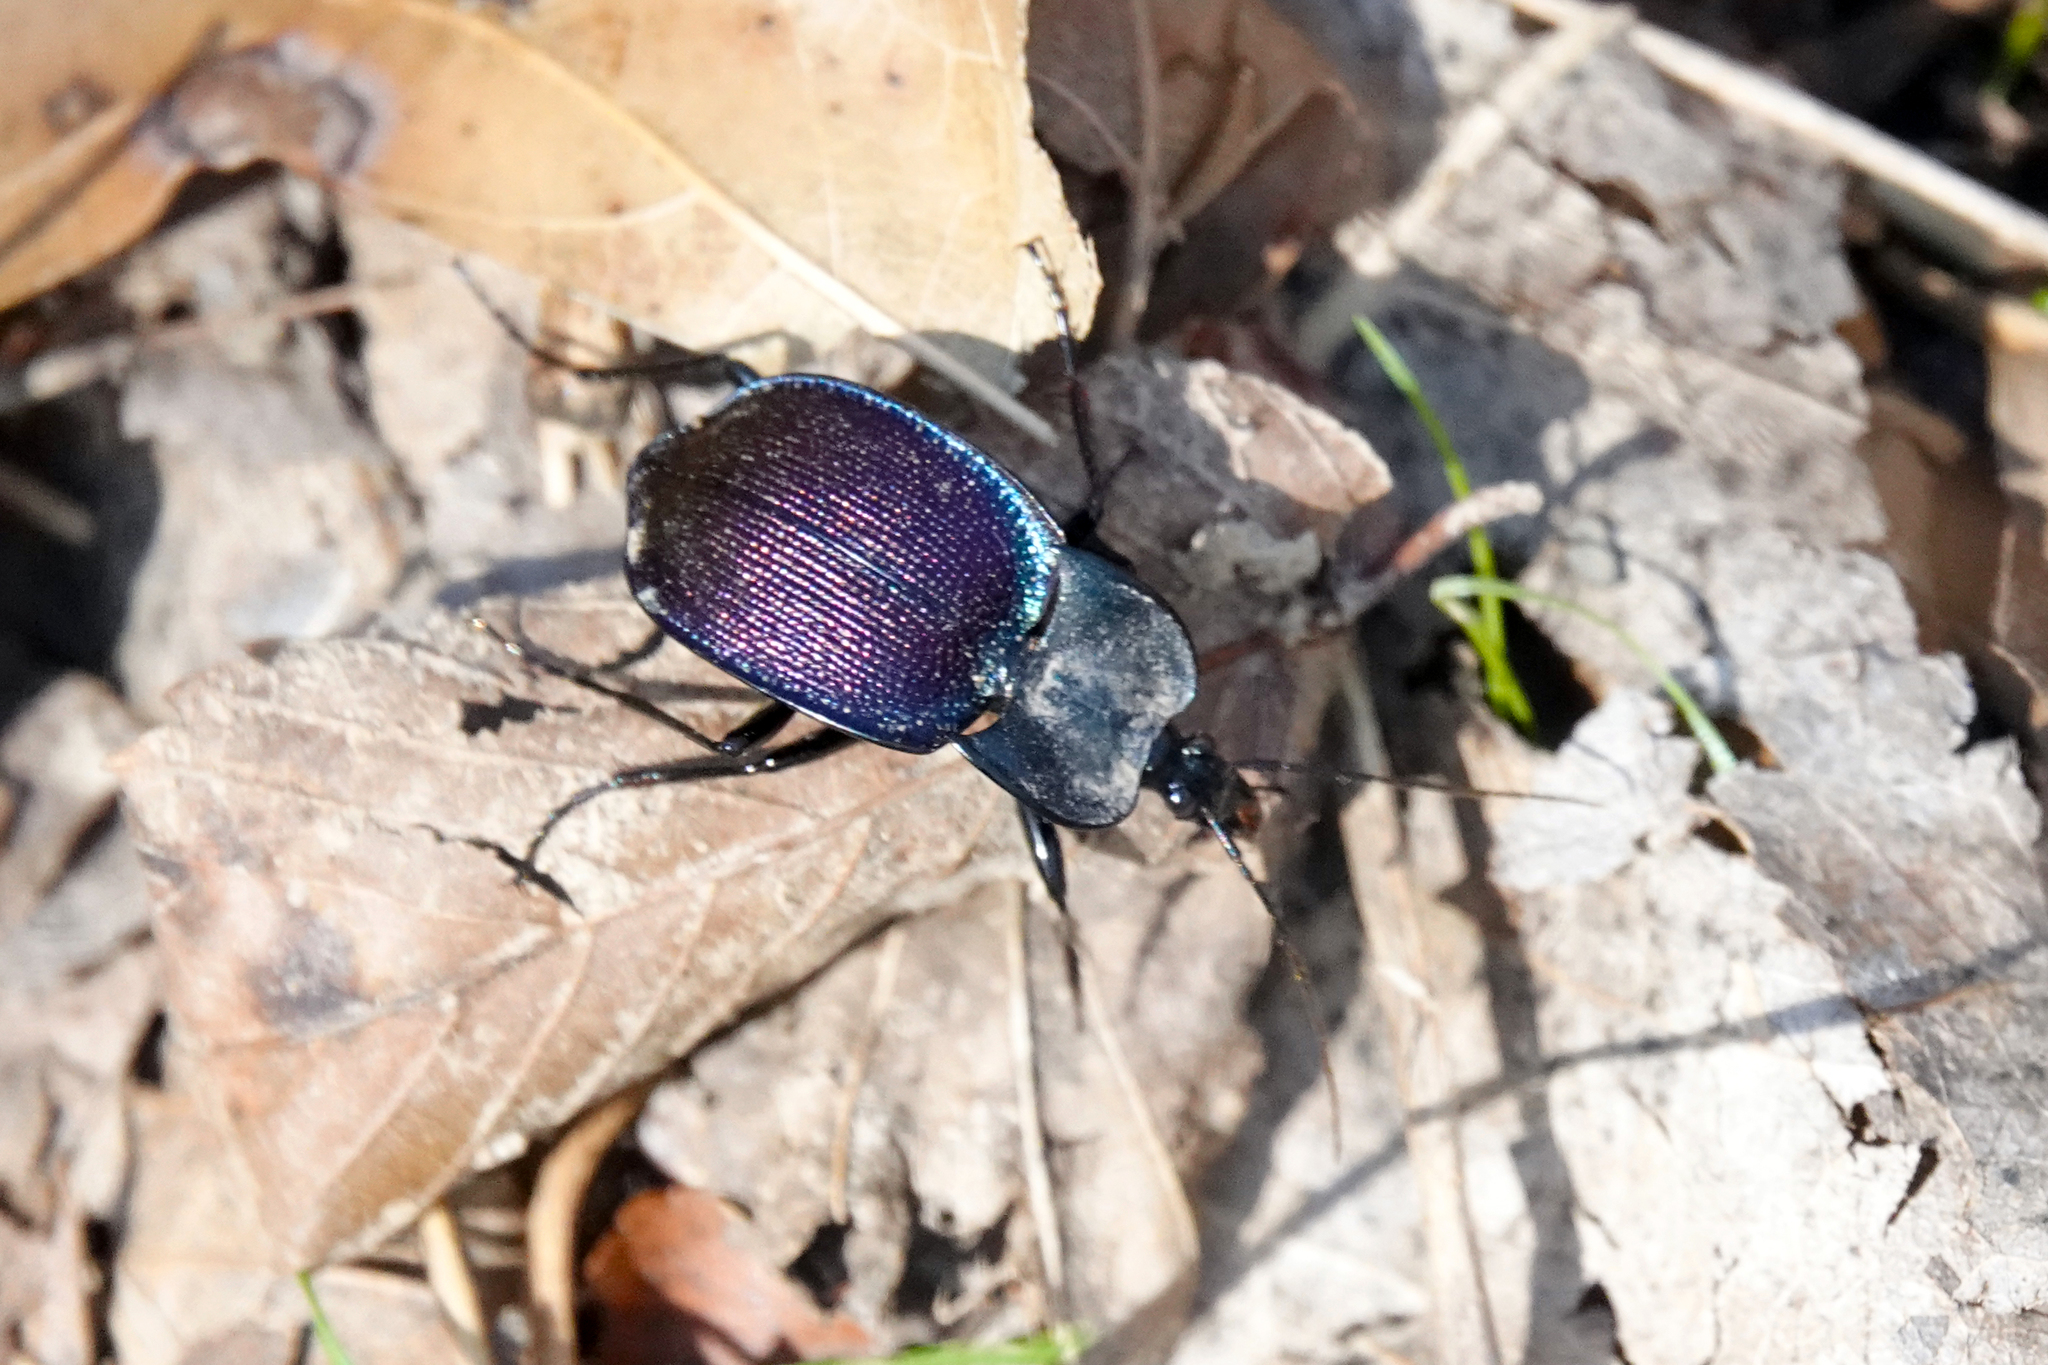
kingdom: Animalia
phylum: Arthropoda
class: Insecta
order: Coleoptera
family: Carabidae
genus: Scaphinotus
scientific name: Scaphinotus elevatus
